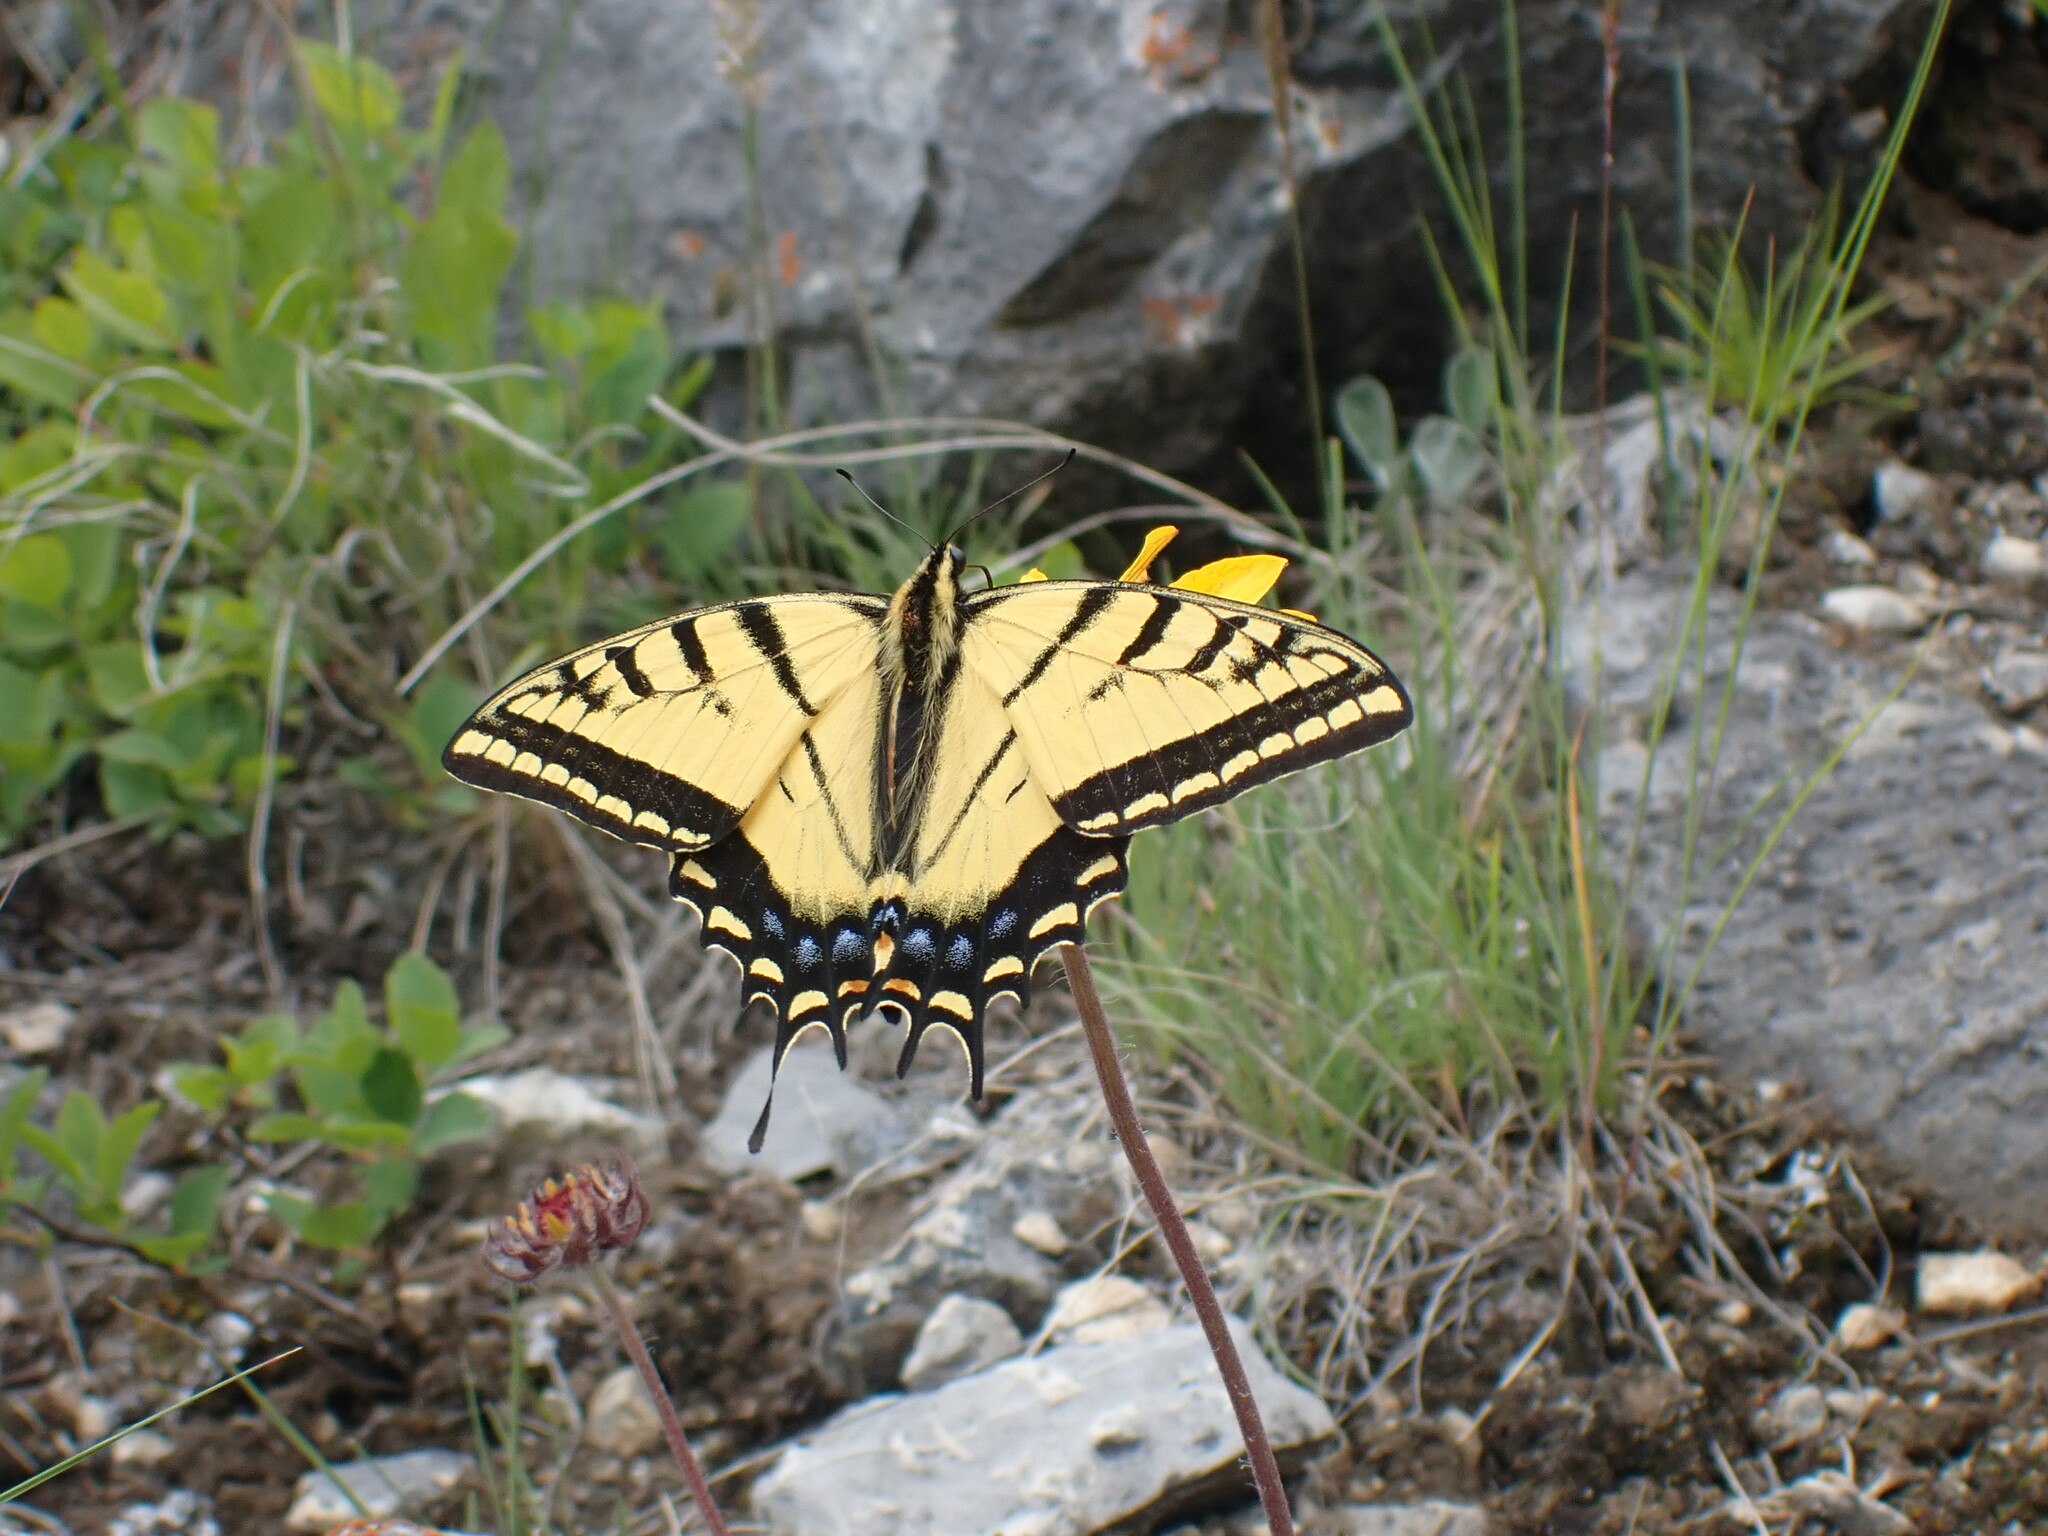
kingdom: Animalia
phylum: Arthropoda
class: Insecta
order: Lepidoptera
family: Papilionidae
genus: Papilio
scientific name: Papilio multicaudata
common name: Two-tailed tiger swallowtail
